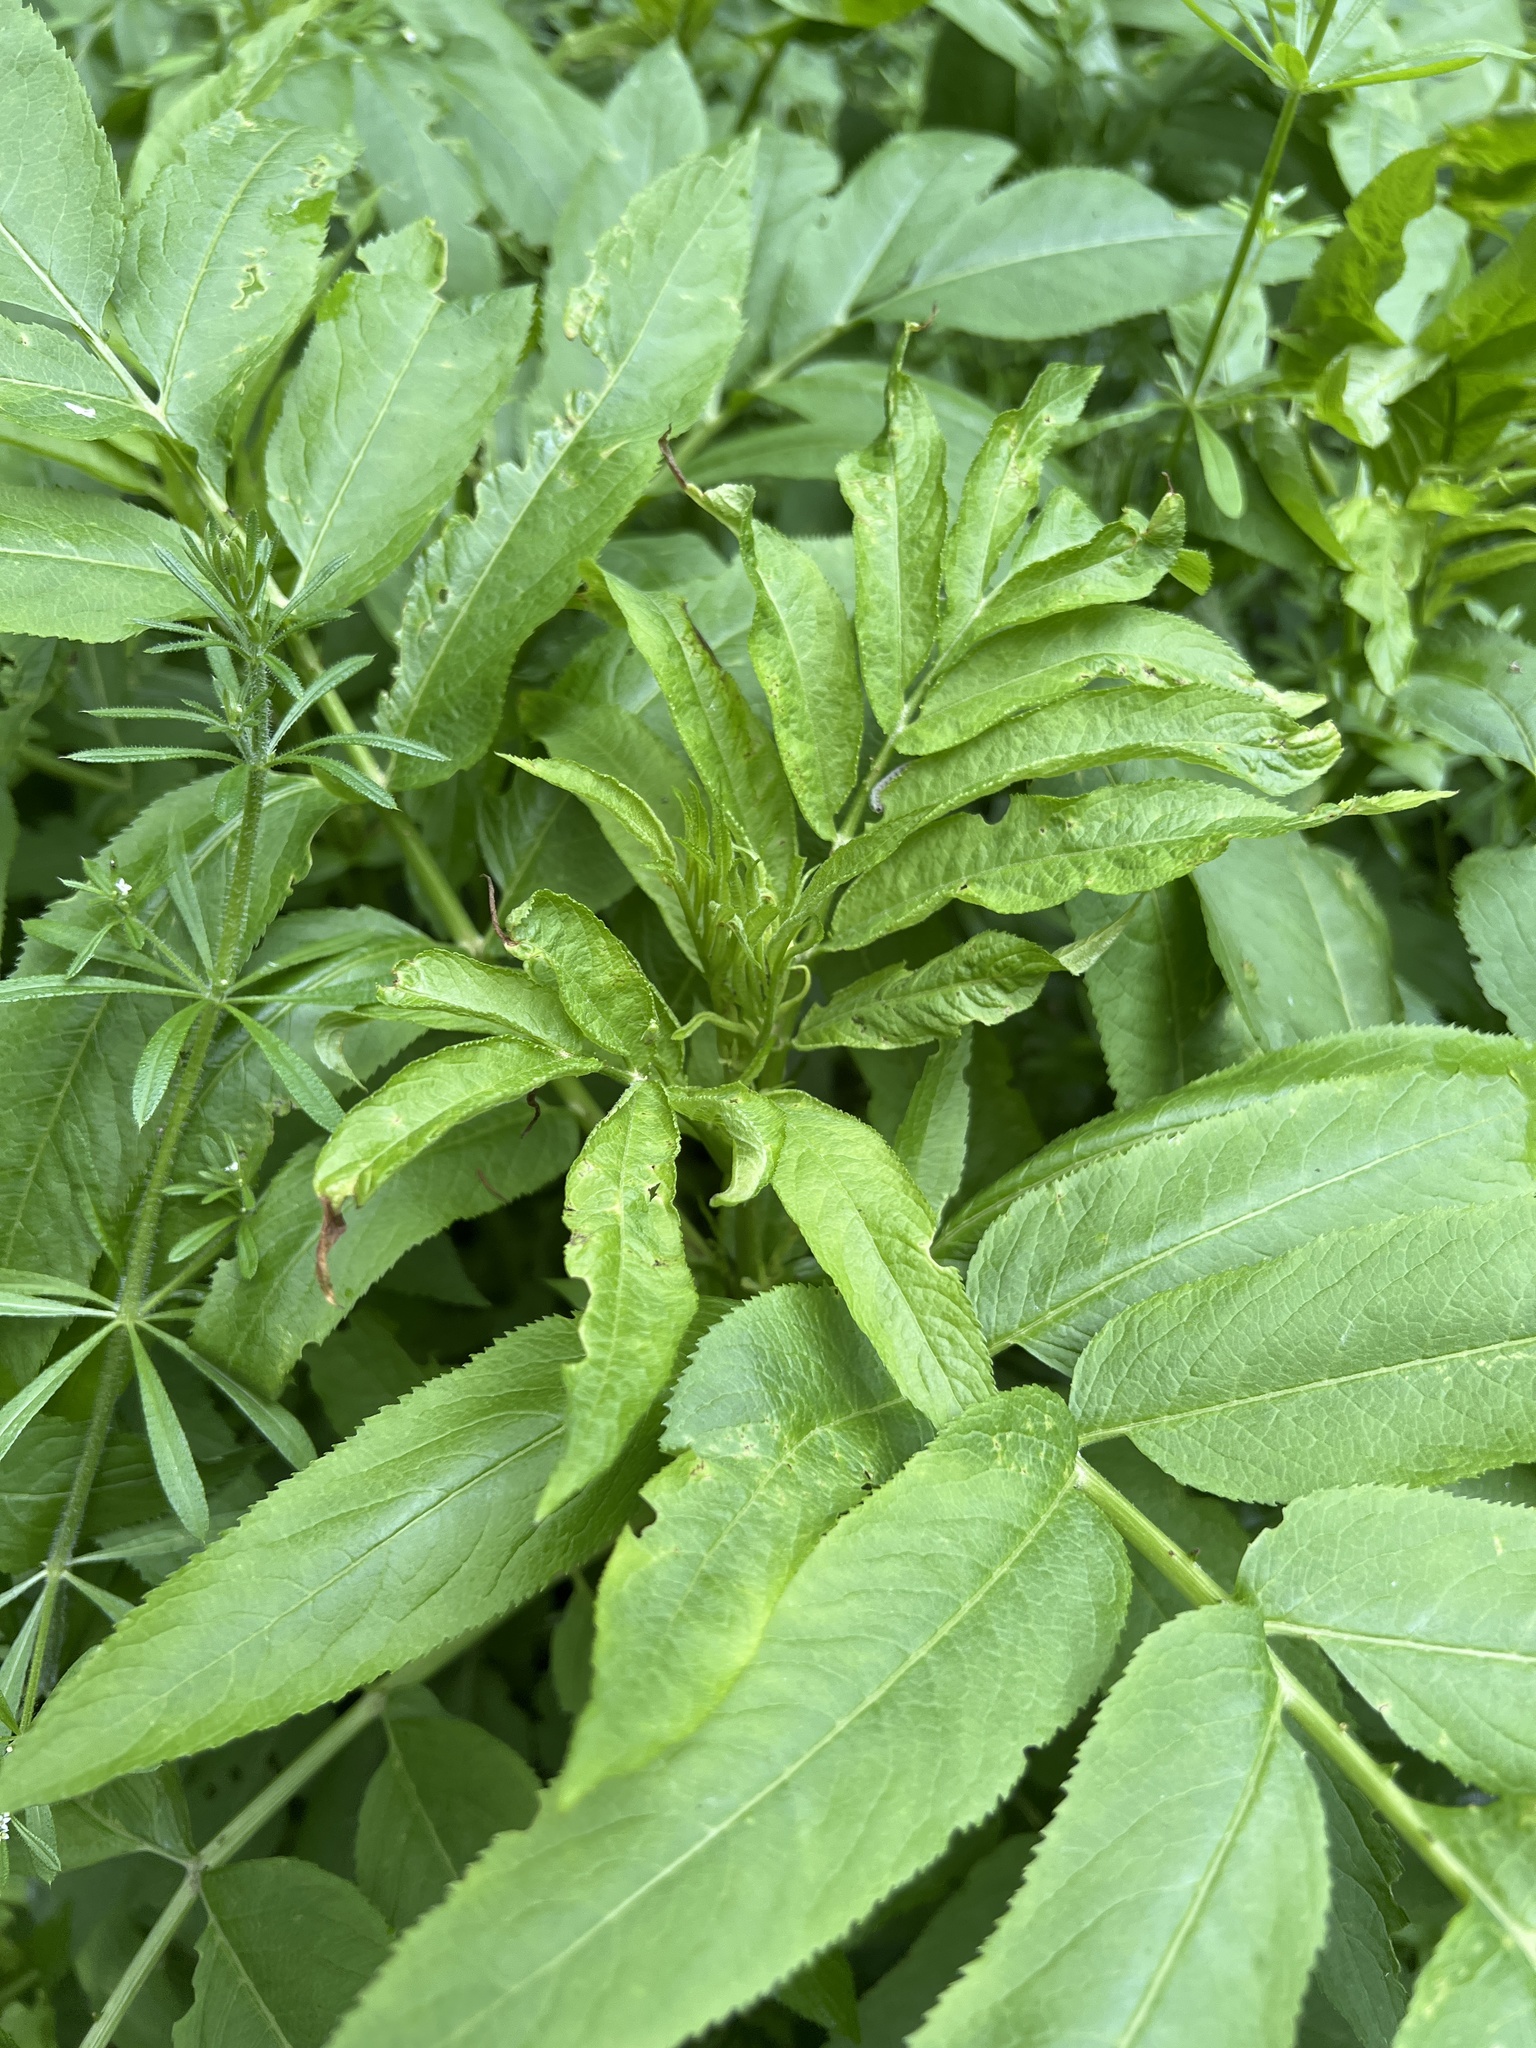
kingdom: Plantae
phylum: Tracheophyta
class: Magnoliopsida
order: Dipsacales
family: Viburnaceae
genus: Sambucus
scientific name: Sambucus ebulus
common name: Dwarf elder
